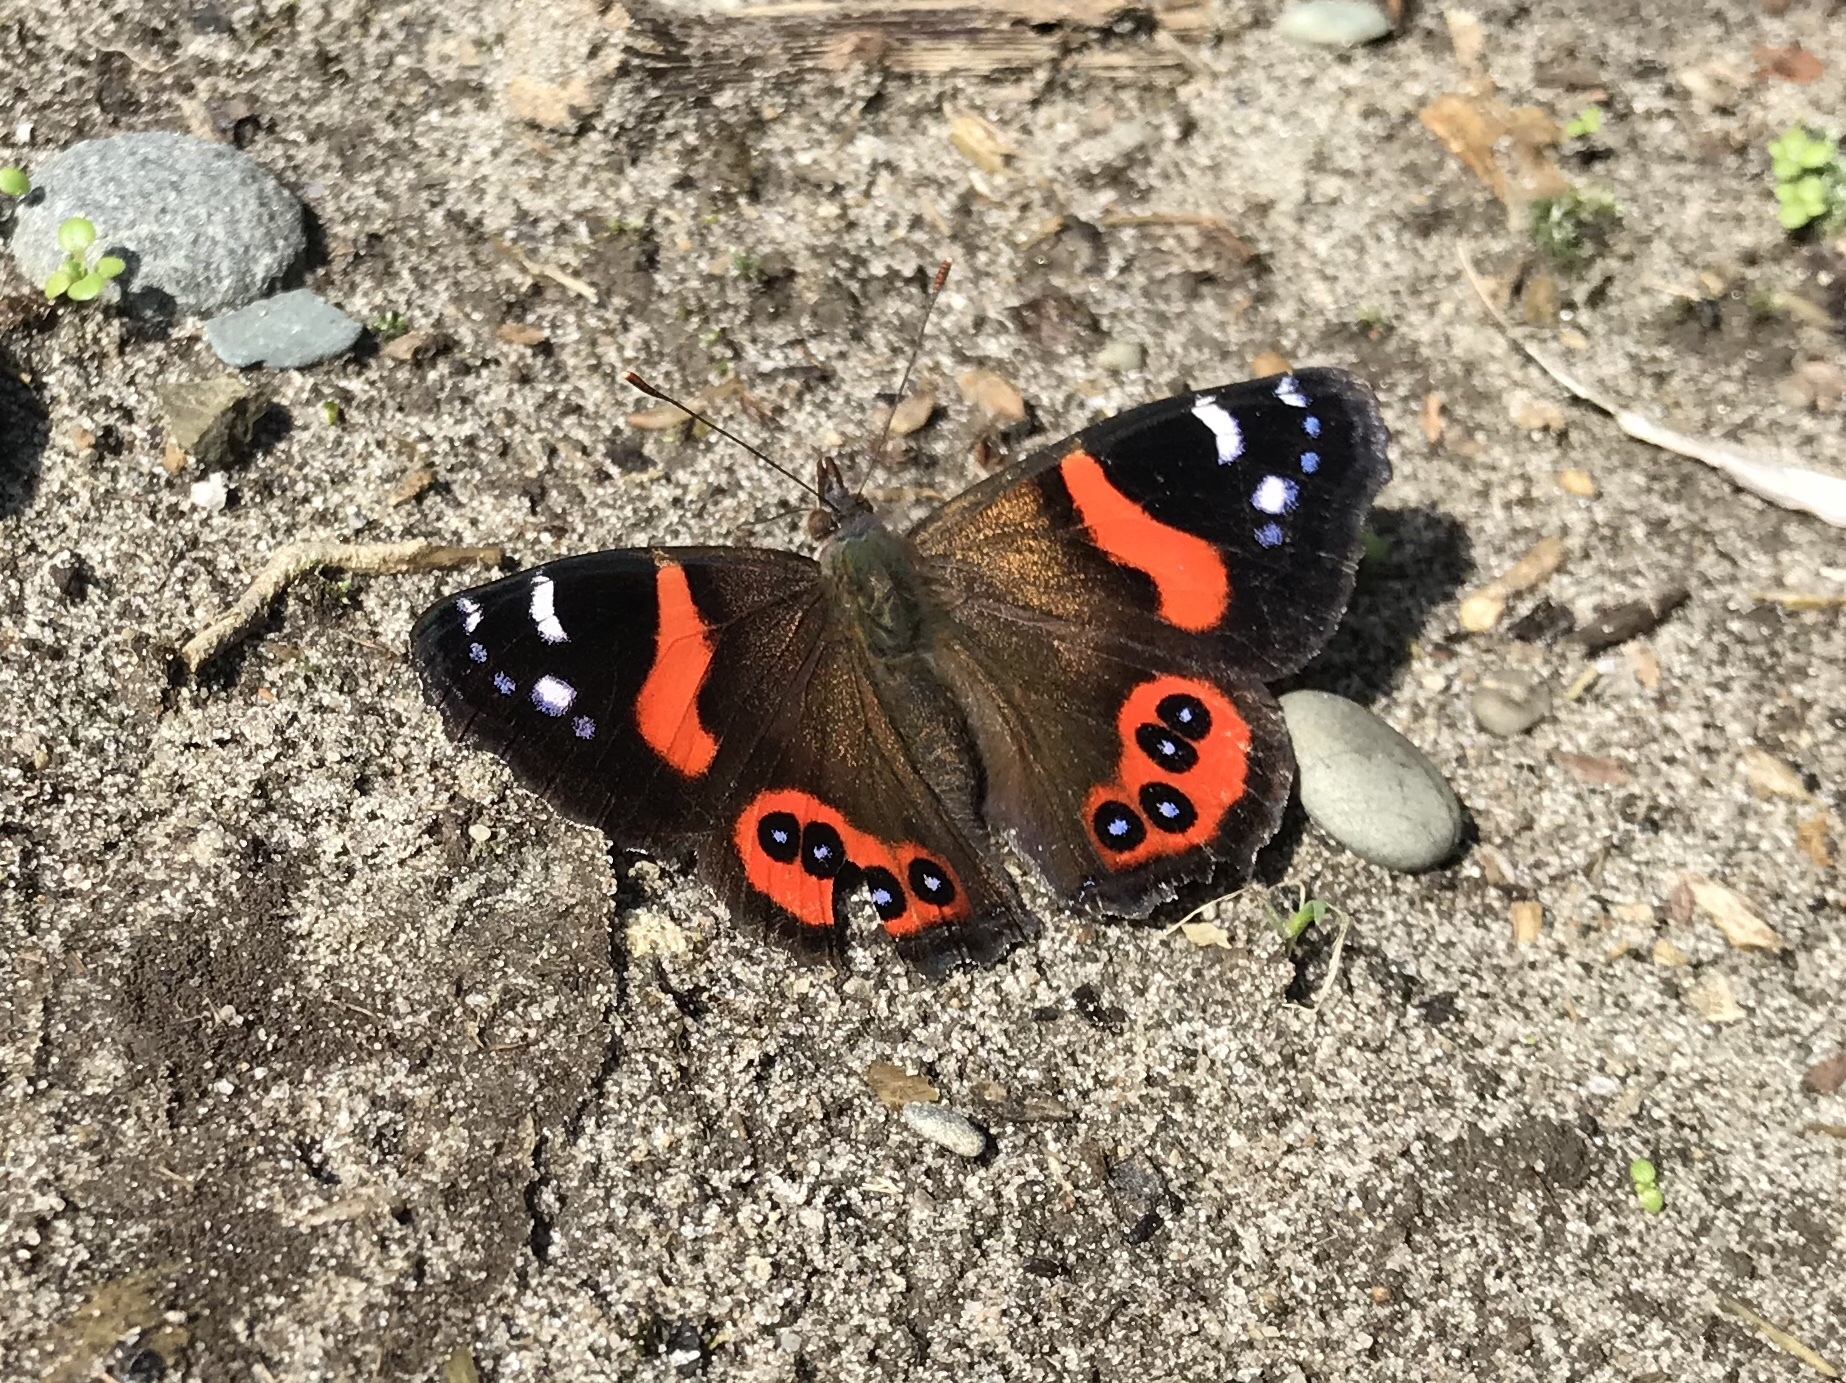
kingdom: Animalia
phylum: Arthropoda
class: Insecta
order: Lepidoptera
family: Nymphalidae
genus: Vanessa
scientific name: Vanessa gonerilla
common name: New zealand red admiral
